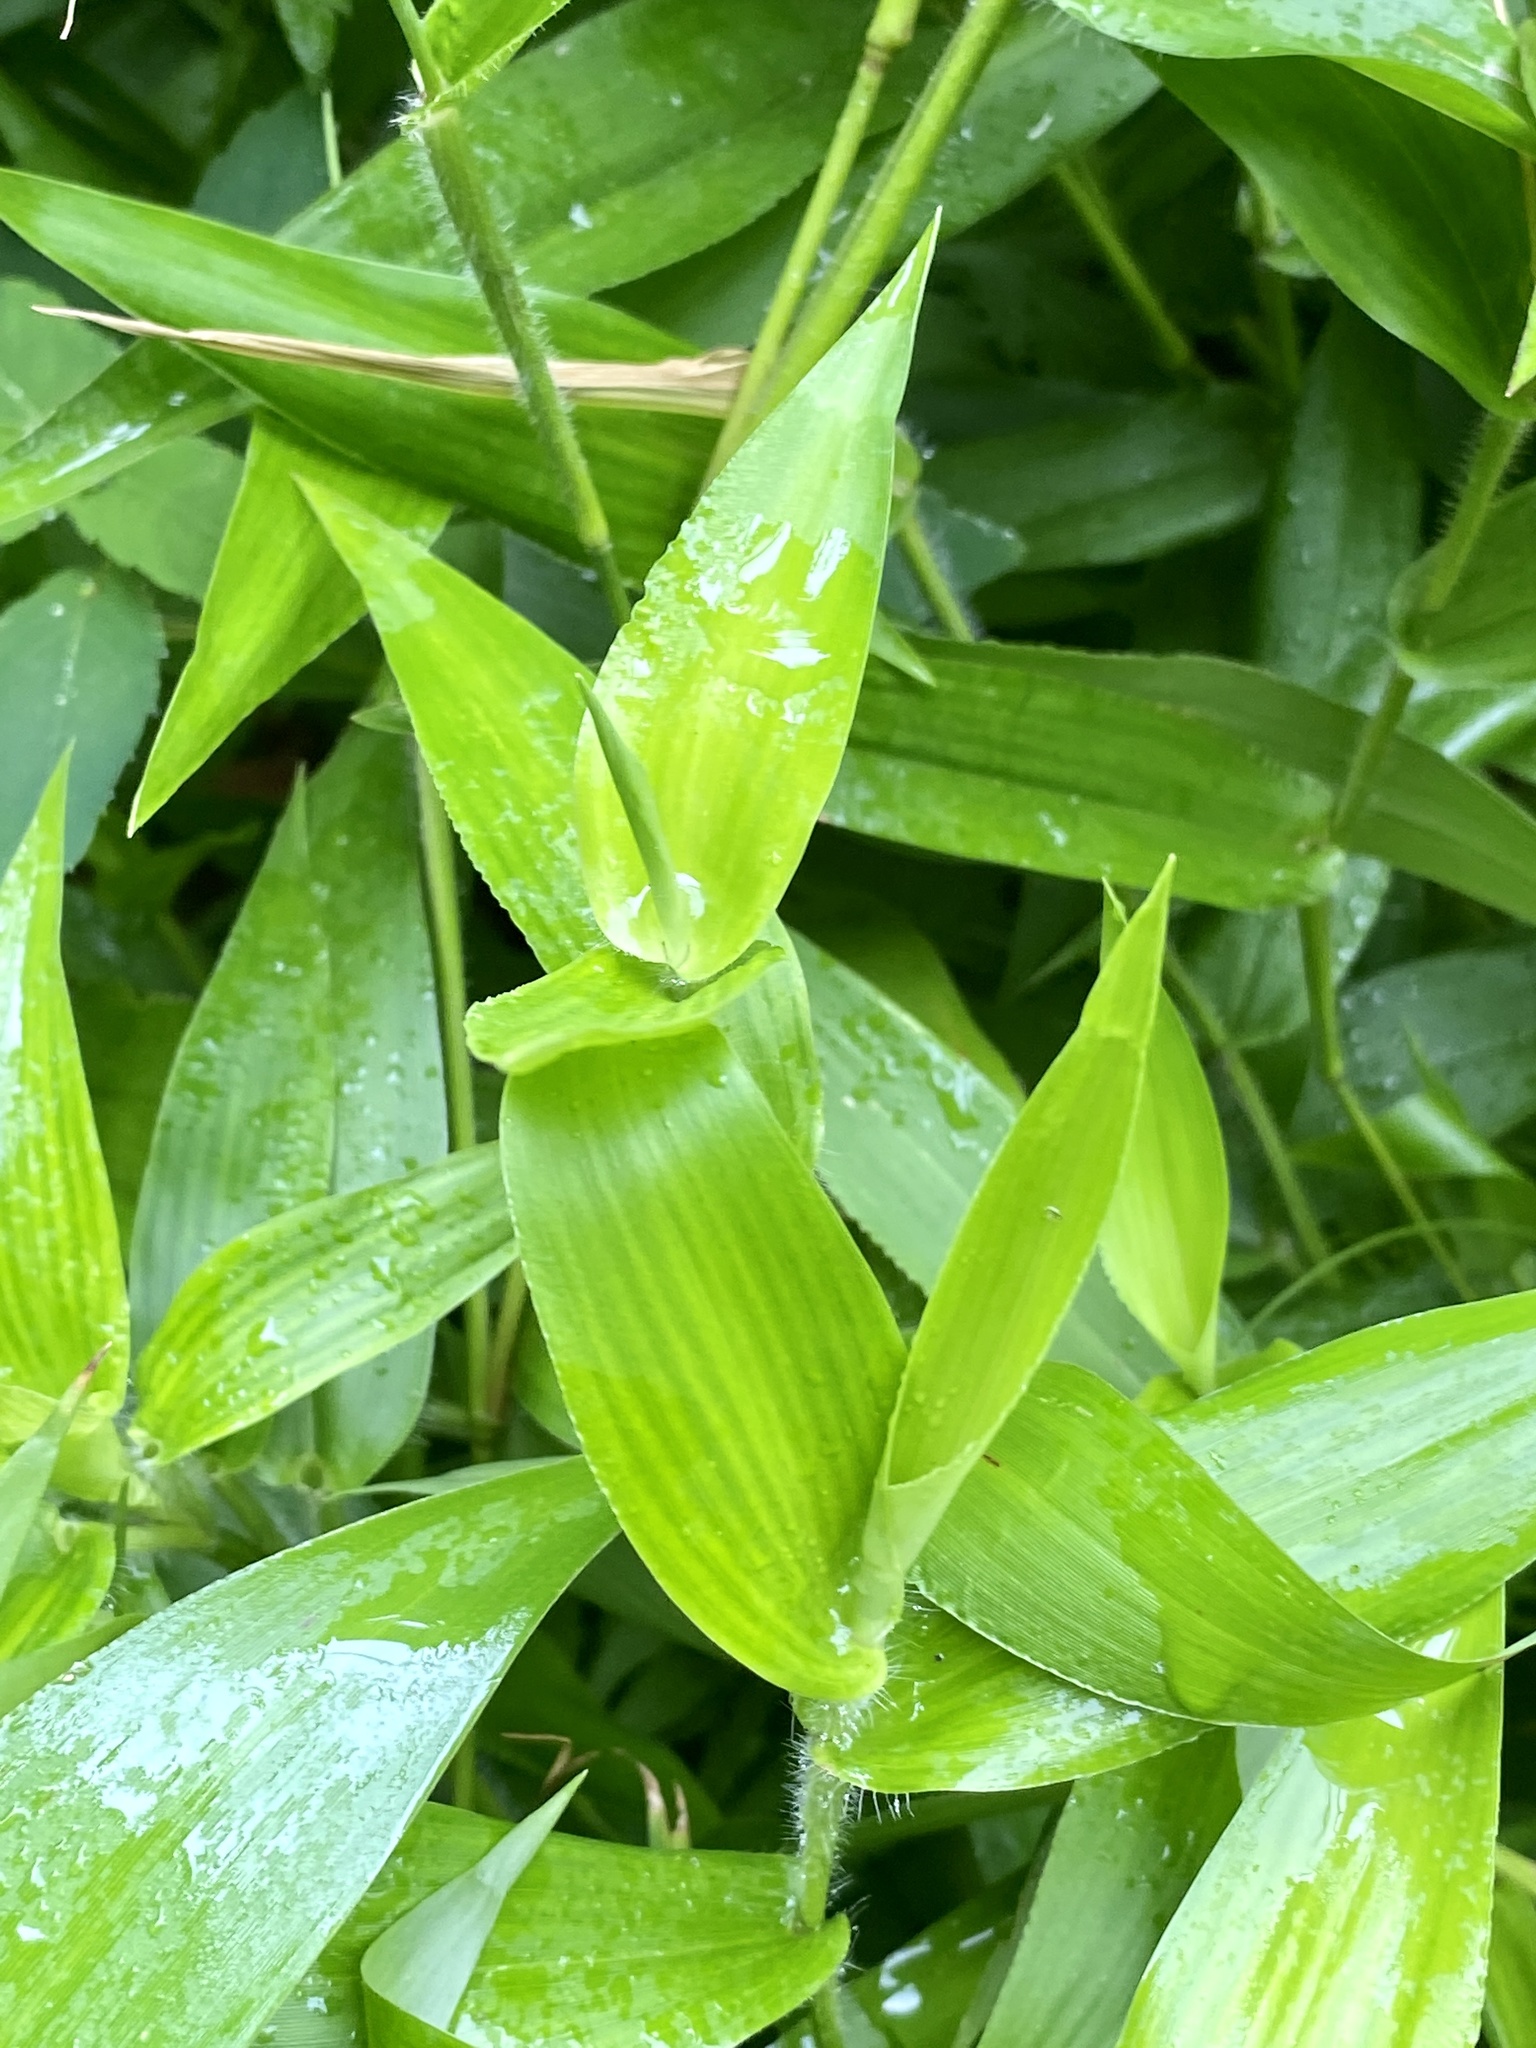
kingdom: Plantae
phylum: Tracheophyta
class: Liliopsida
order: Poales
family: Poaceae
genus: Dichanthelium
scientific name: Dichanthelium clandestinum
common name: Deer-tongue grass
